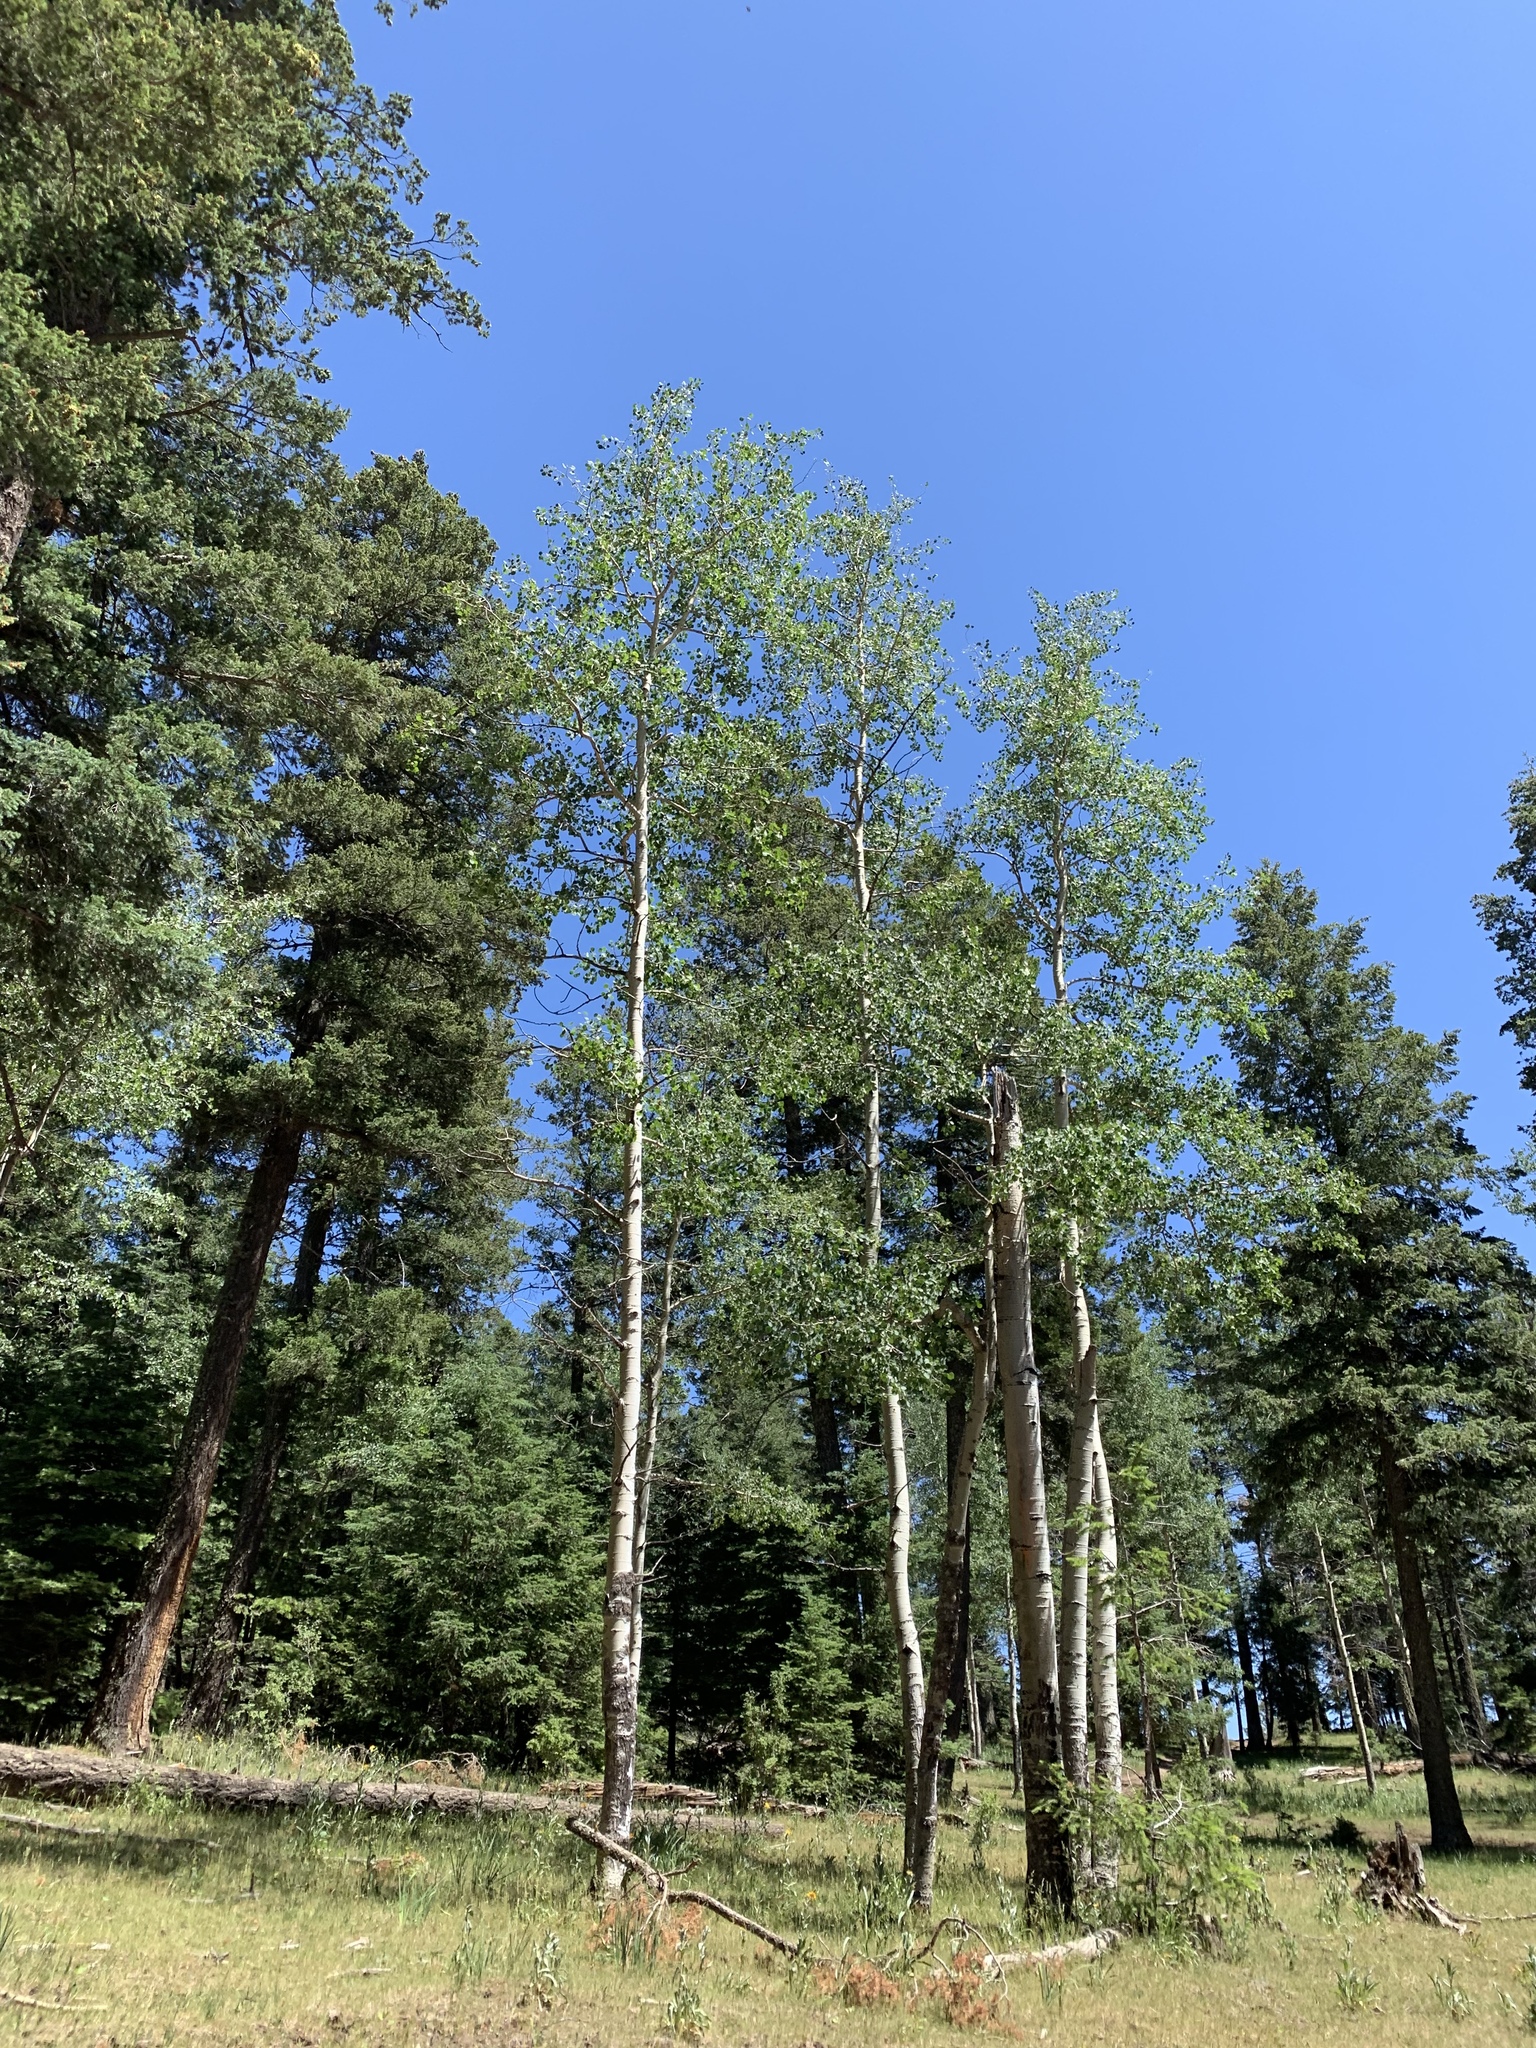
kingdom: Plantae
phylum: Tracheophyta
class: Magnoliopsida
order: Malpighiales
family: Salicaceae
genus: Populus
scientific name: Populus tremuloides
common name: Quaking aspen
